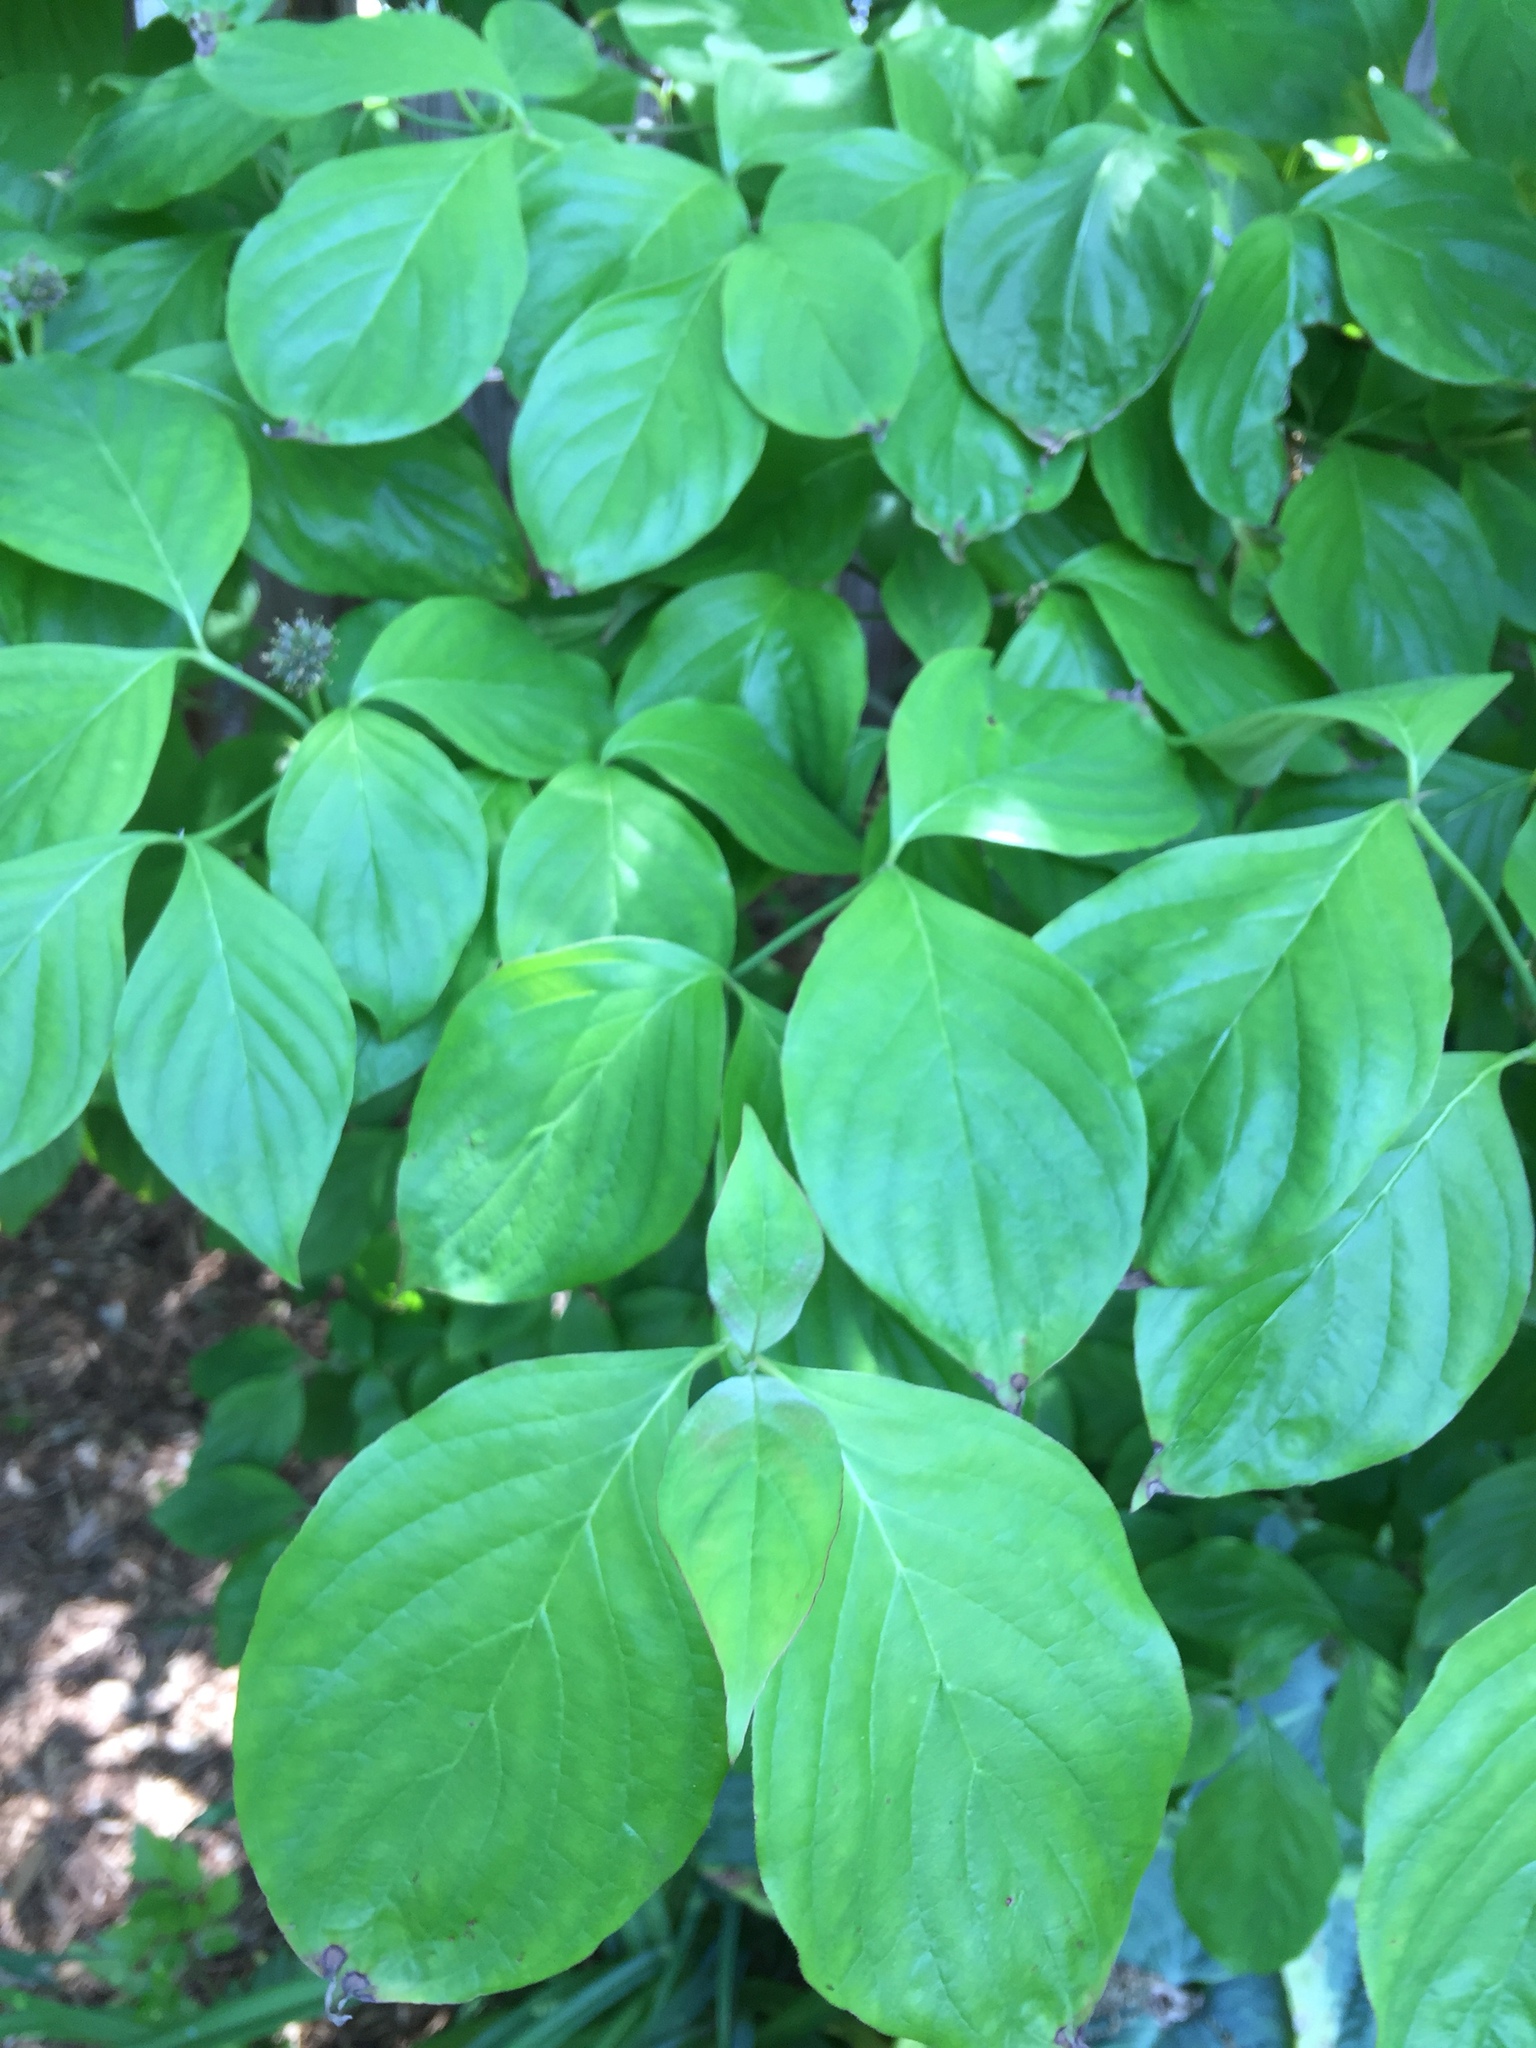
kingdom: Plantae
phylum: Tracheophyta
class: Magnoliopsida
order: Cornales
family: Cornaceae
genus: Cornus
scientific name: Cornus florida
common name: Flowering dogwood
